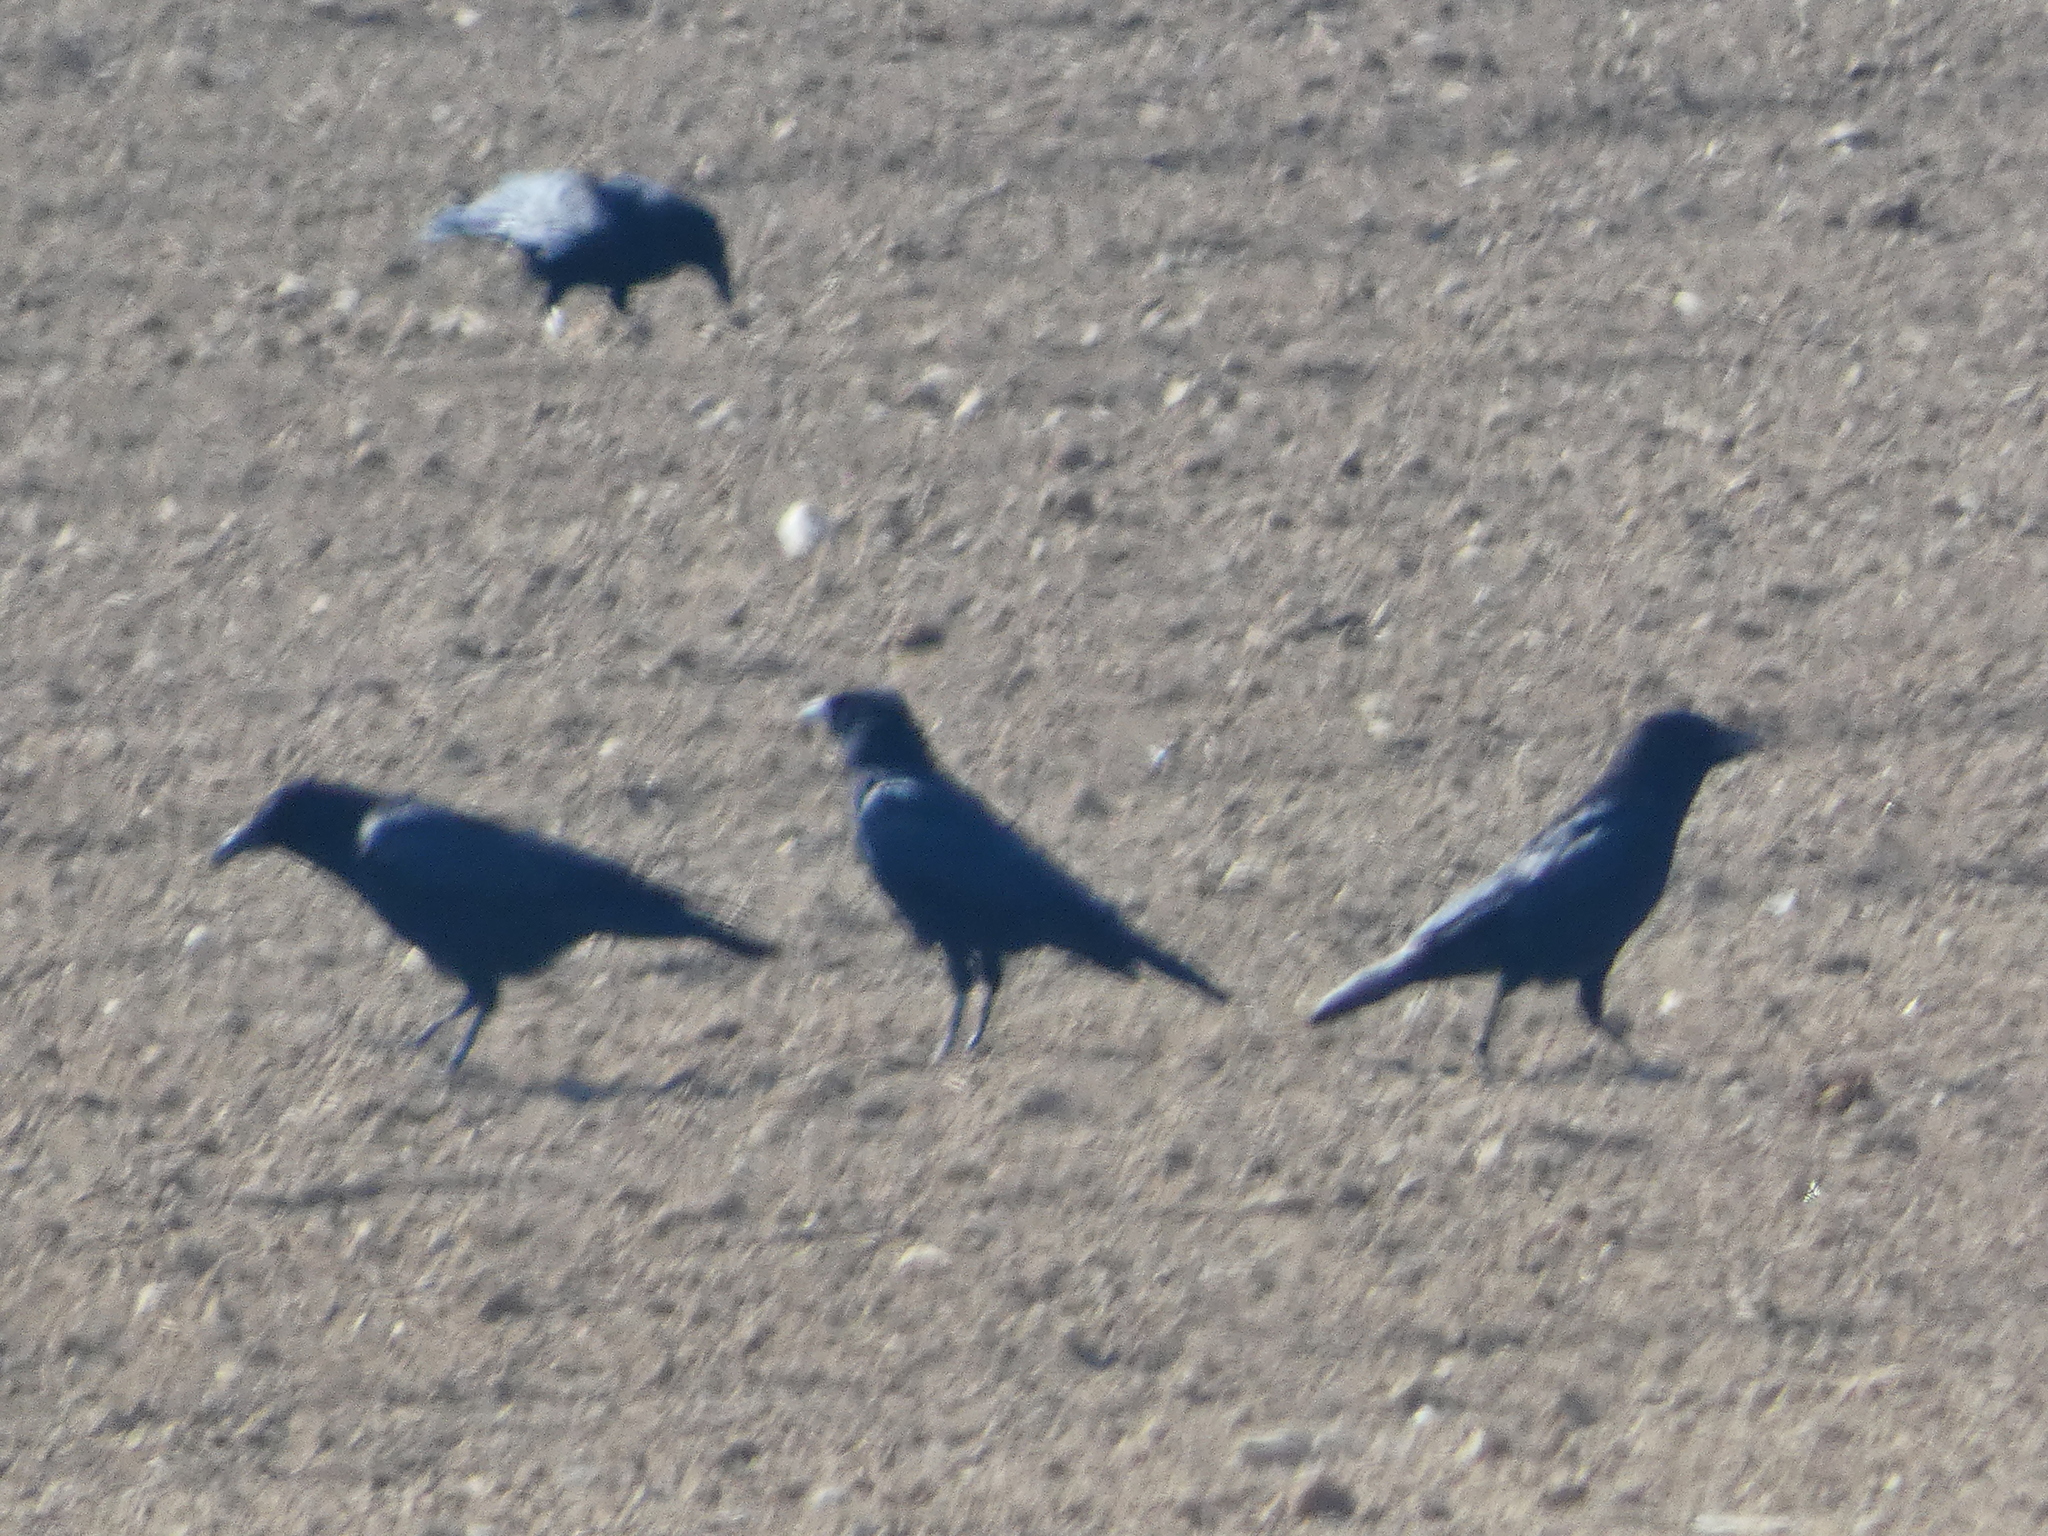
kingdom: Animalia
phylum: Chordata
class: Aves
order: Passeriformes
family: Corvidae
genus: Corvus
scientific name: Corvus corone
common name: Carrion crow
